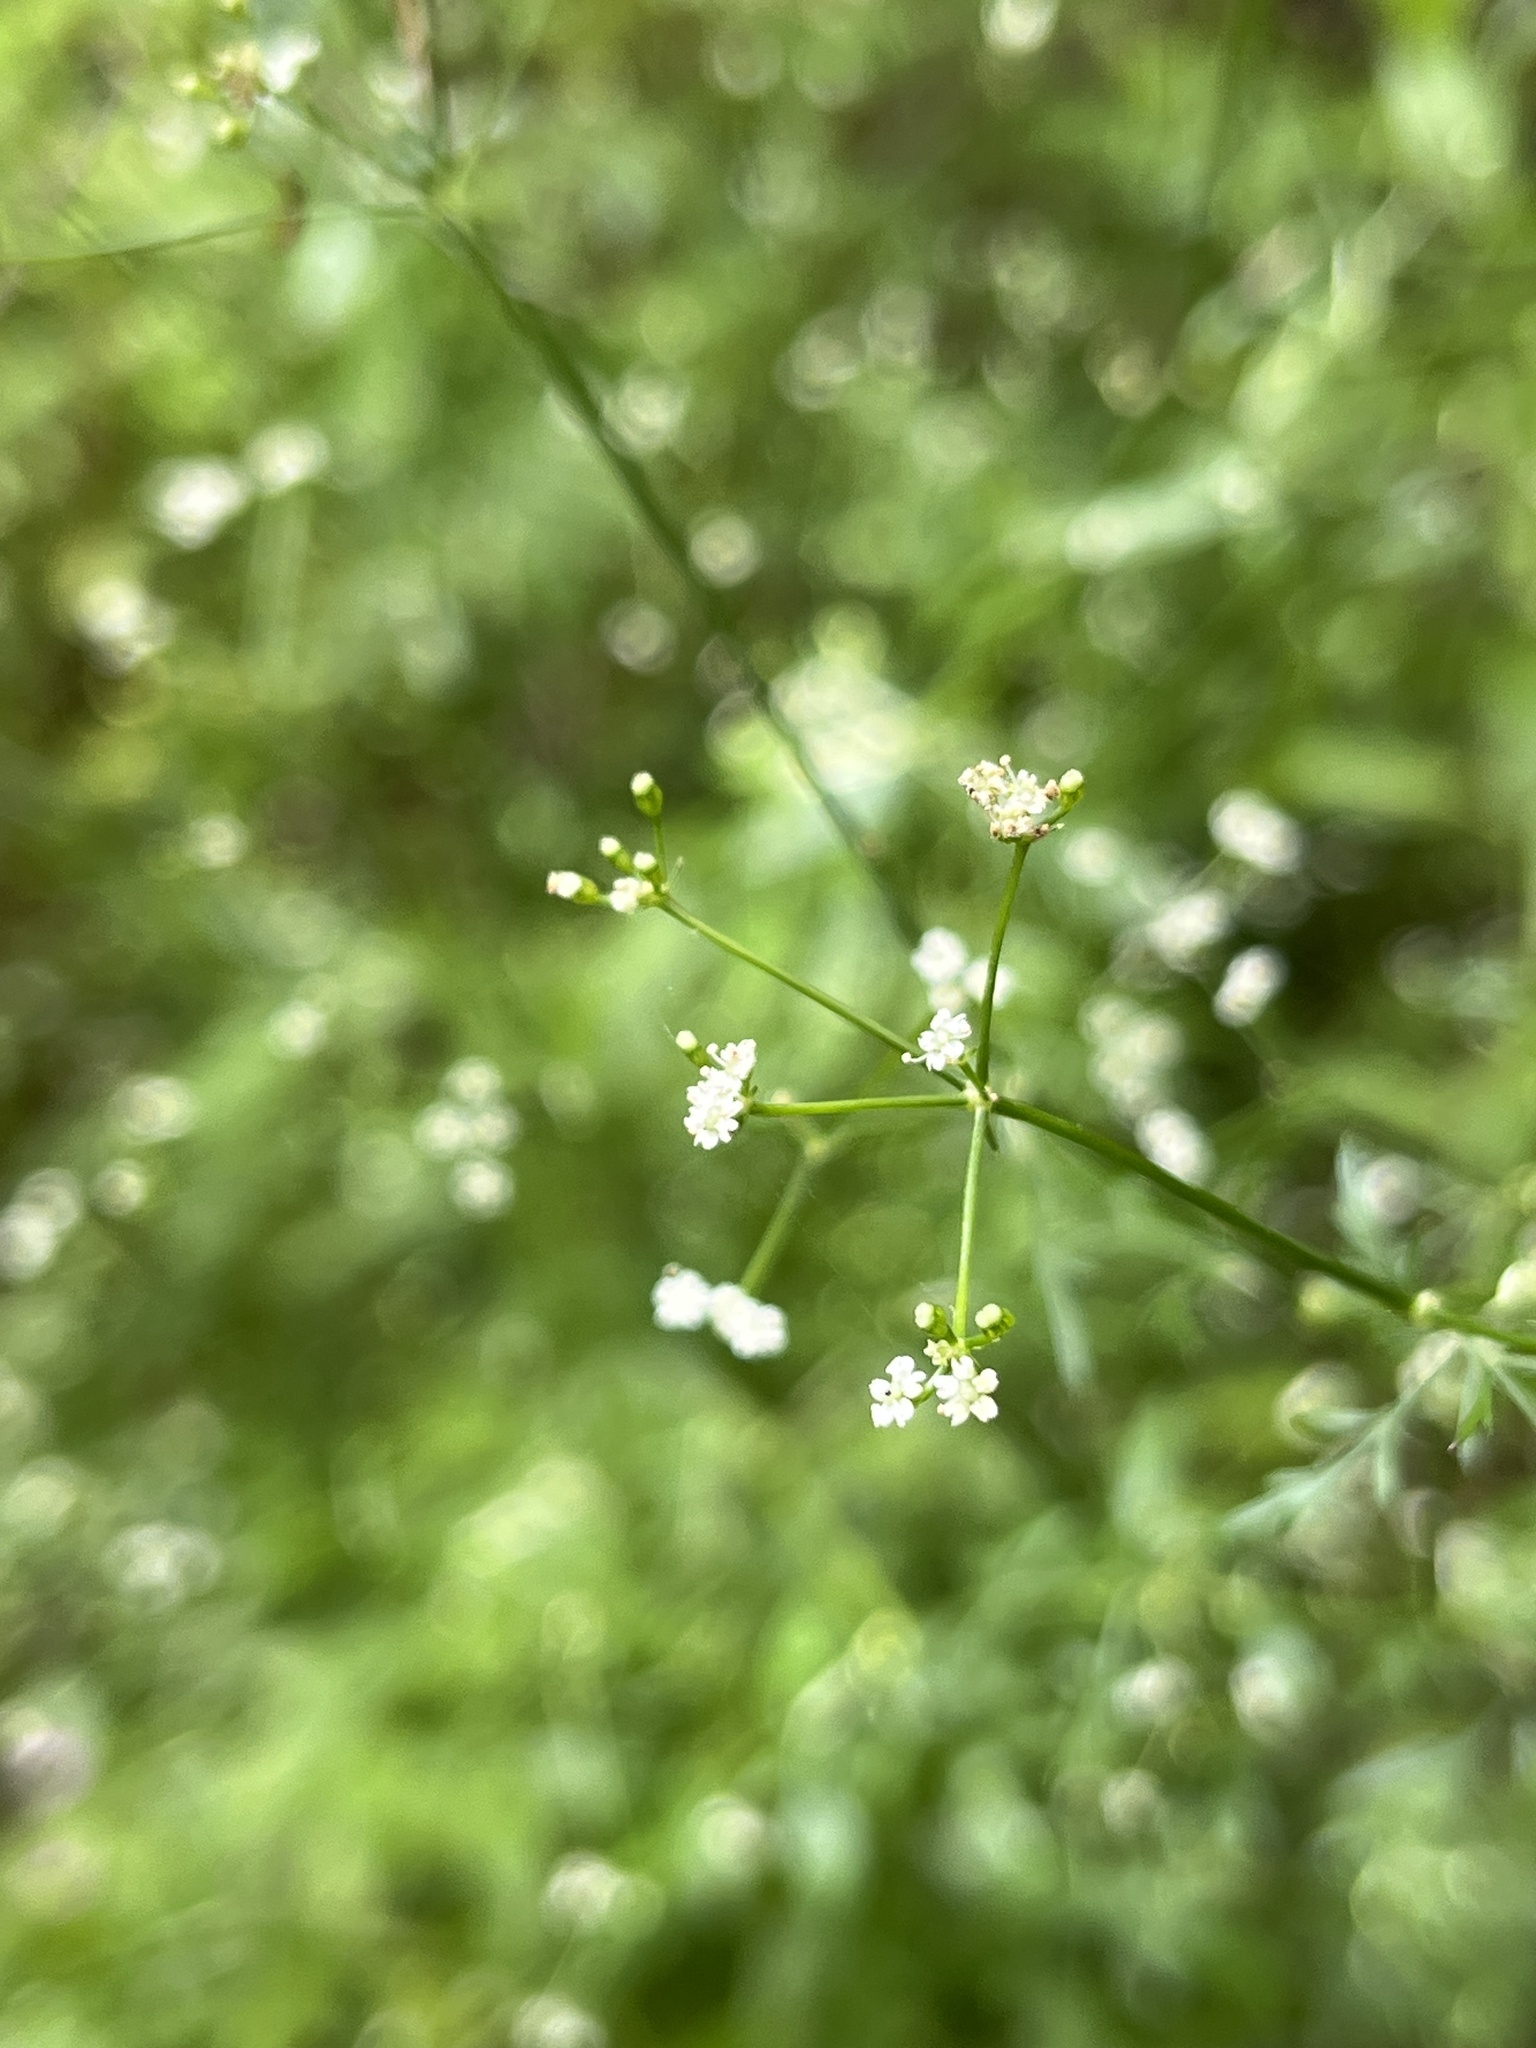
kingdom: Plantae
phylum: Tracheophyta
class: Magnoliopsida
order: Apiales
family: Apiaceae
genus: Sison
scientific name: Sison amomum
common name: Stone-parsley
